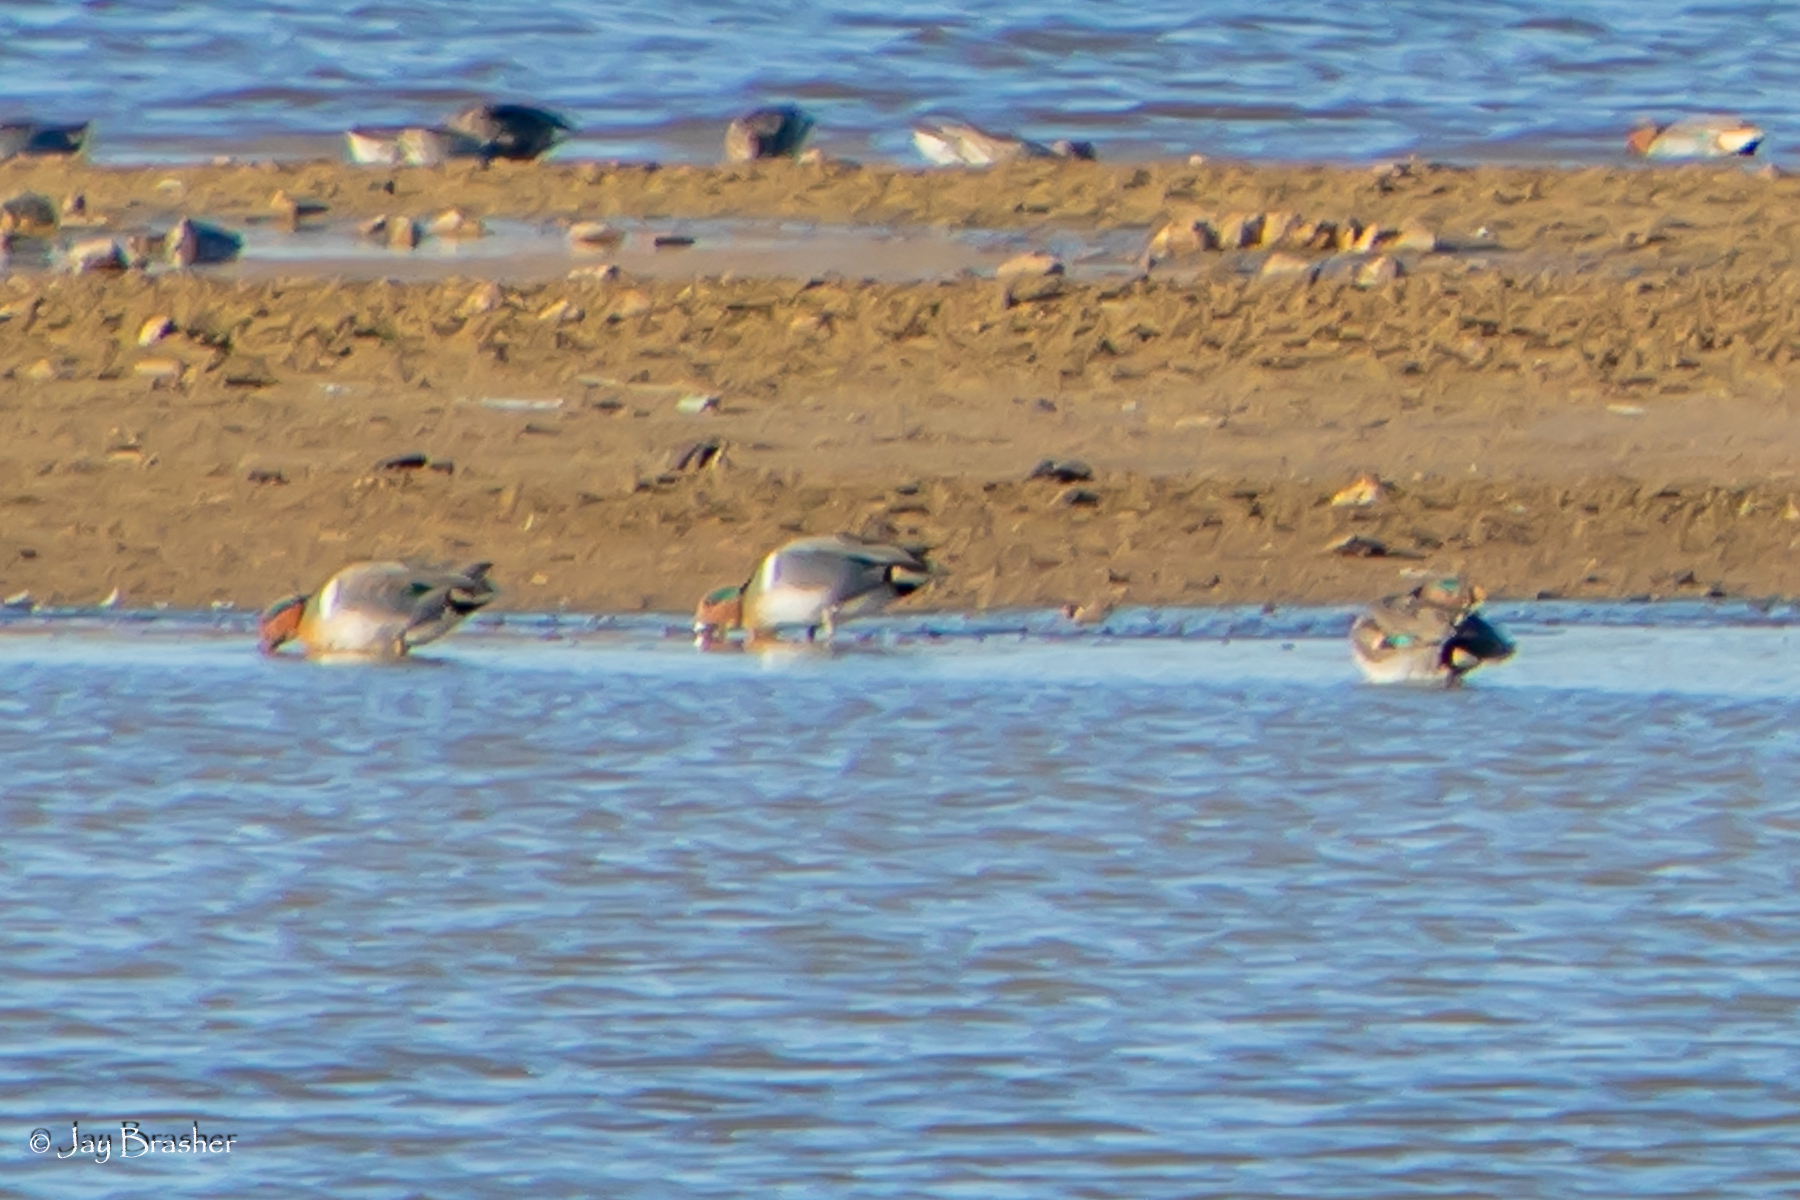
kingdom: Animalia
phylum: Chordata
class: Aves
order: Anseriformes
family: Anatidae
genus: Anas
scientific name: Anas crecca
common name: Eurasian teal
